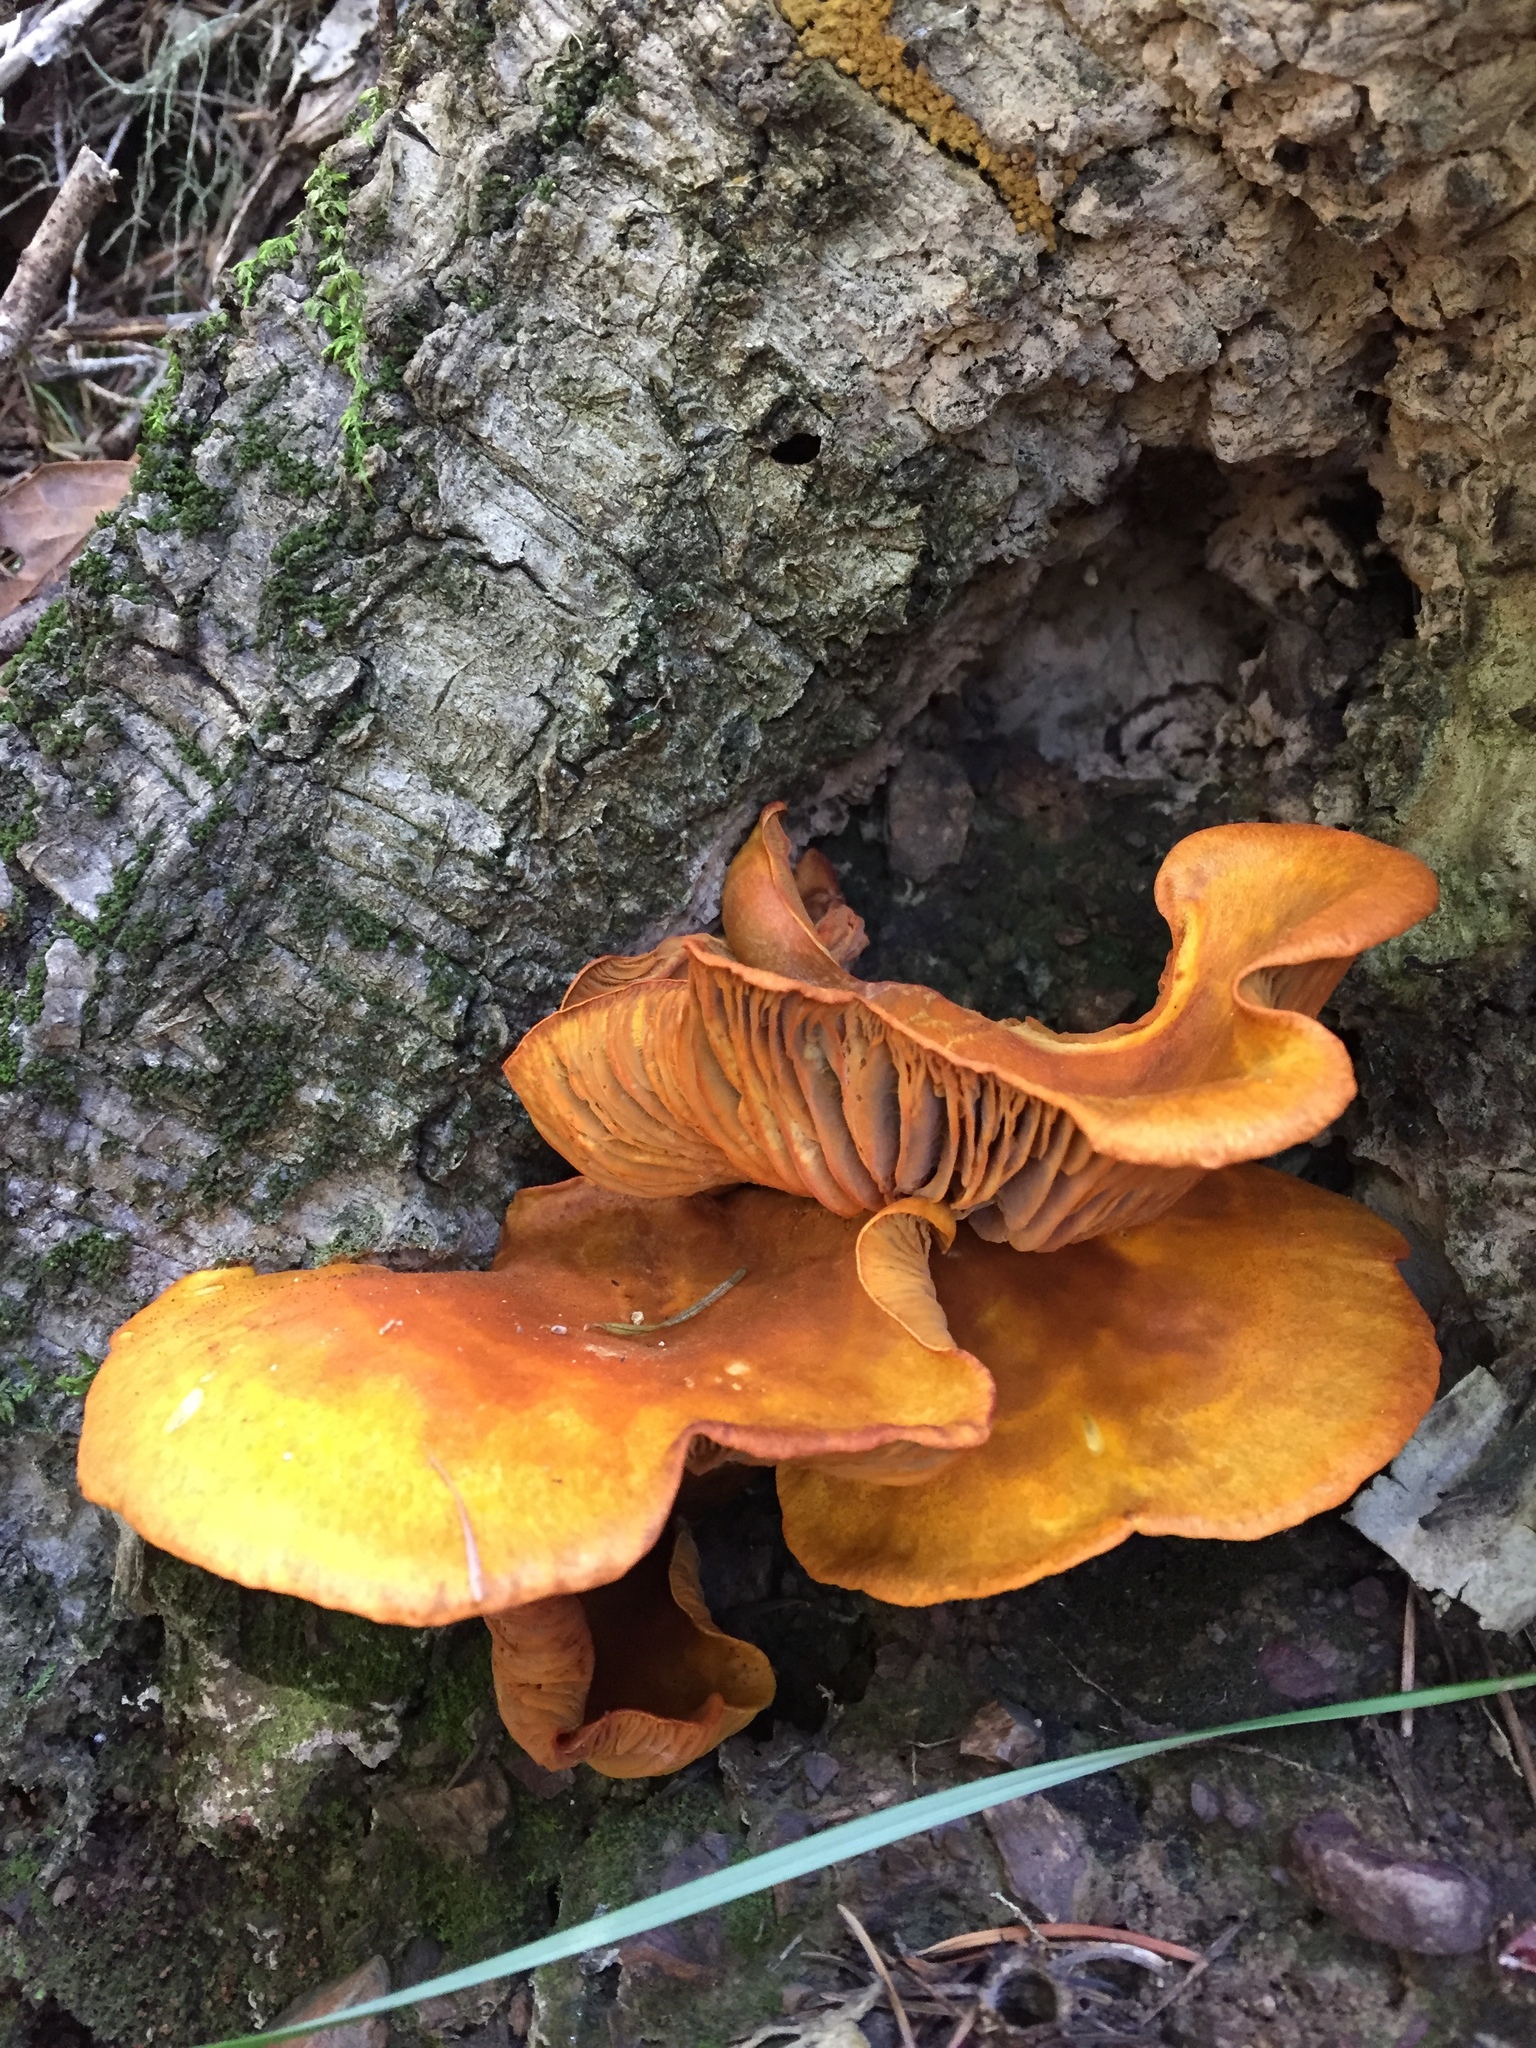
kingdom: Fungi
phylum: Basidiomycota
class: Agaricomycetes
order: Agaricales
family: Omphalotaceae
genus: Omphalotus
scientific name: Omphalotus olivascens
